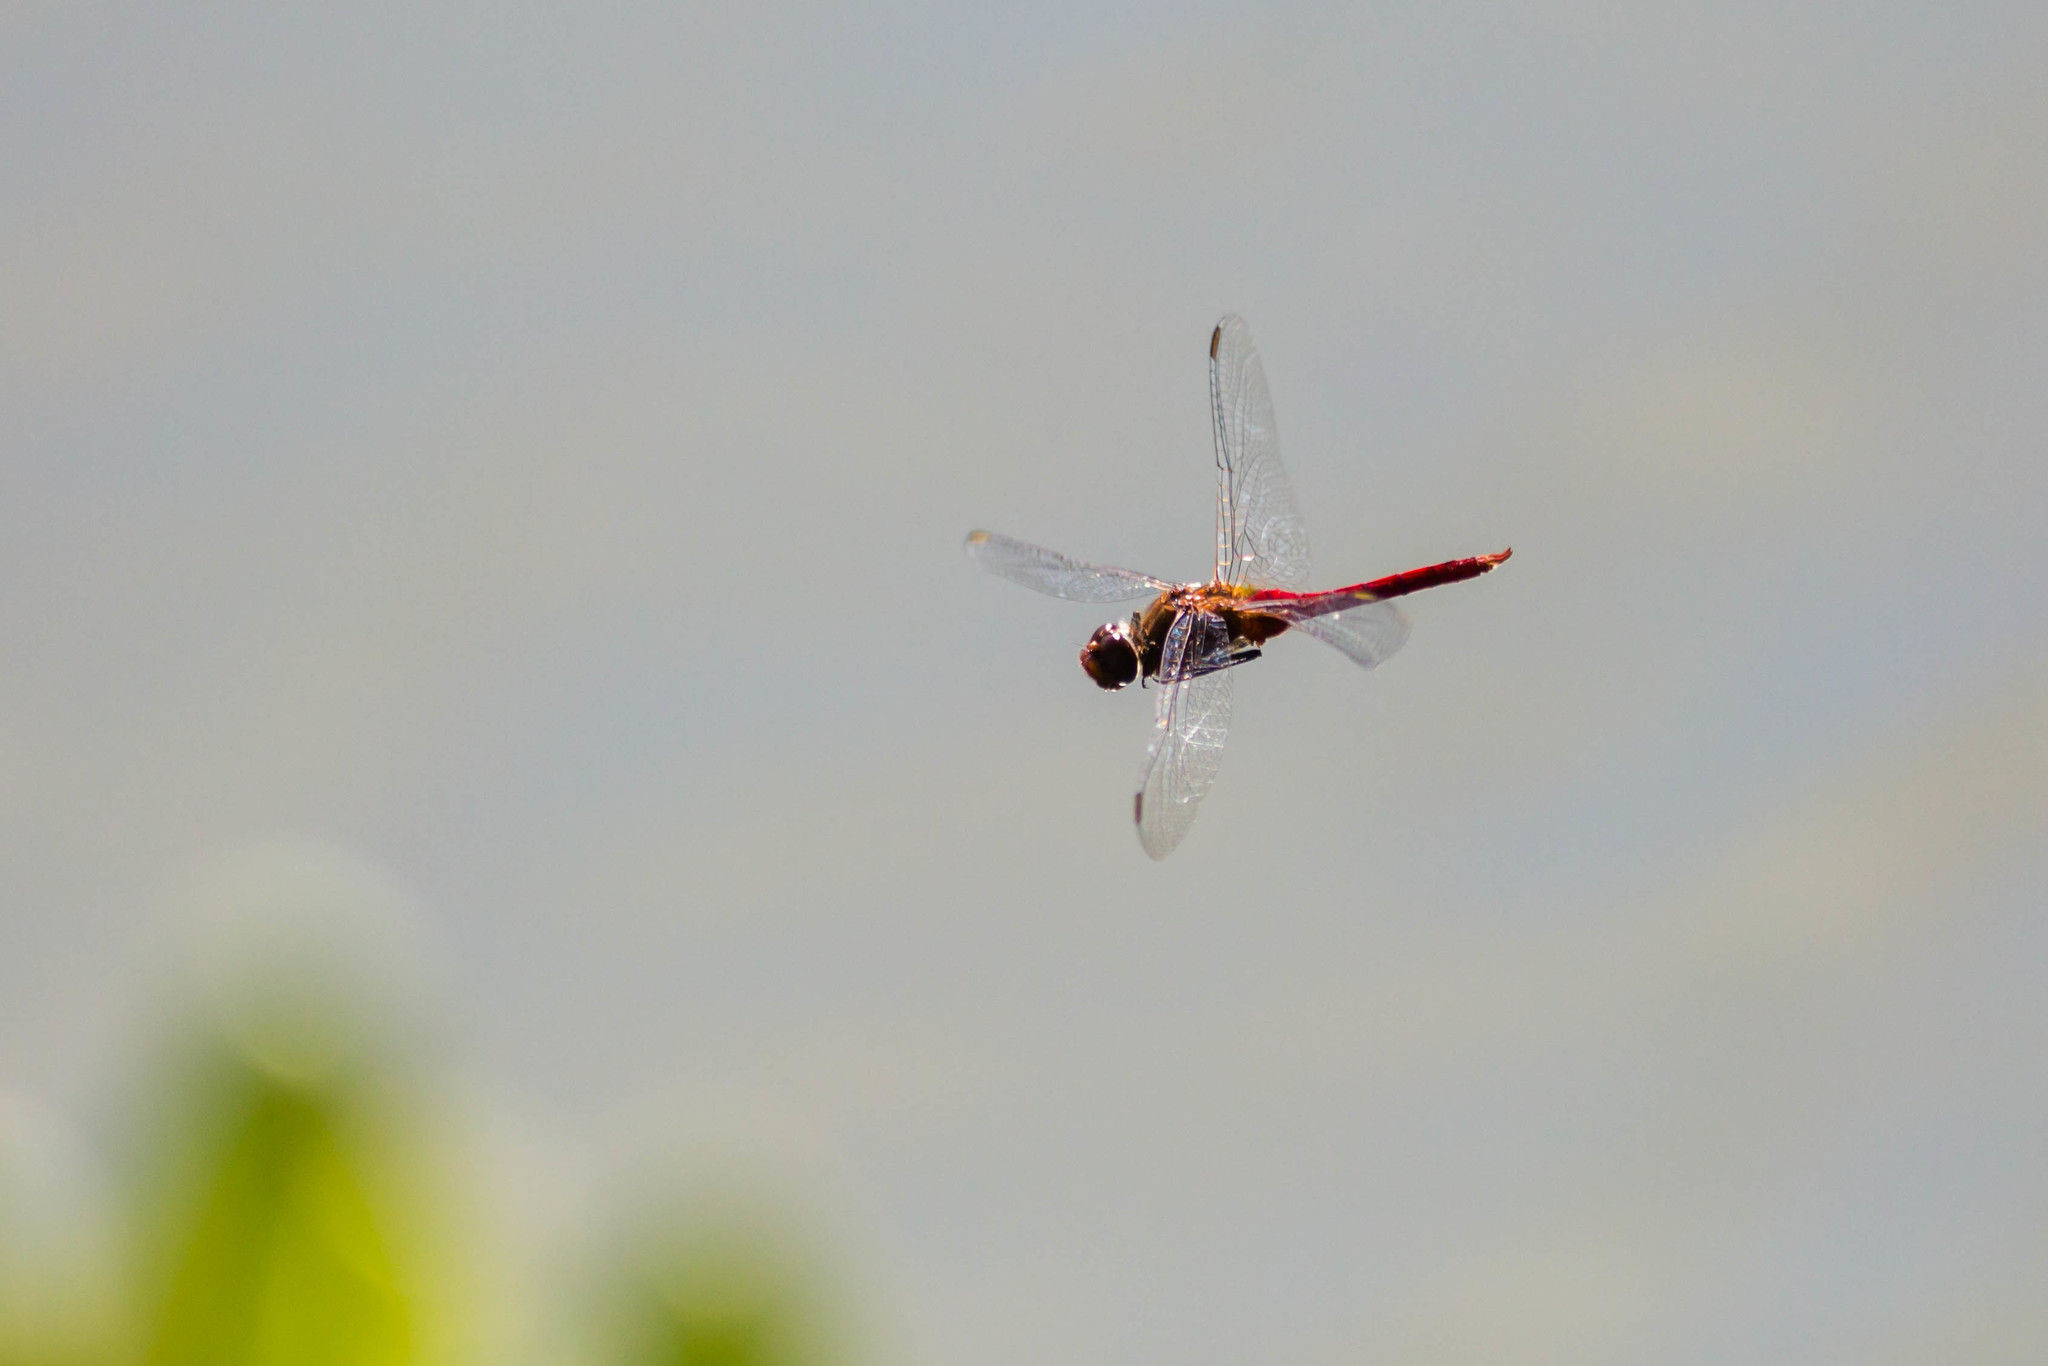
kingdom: Animalia
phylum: Arthropoda
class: Insecta
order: Odonata
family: Libellulidae
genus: Brachymesia
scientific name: Brachymesia furcata
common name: Red-taled pennant
